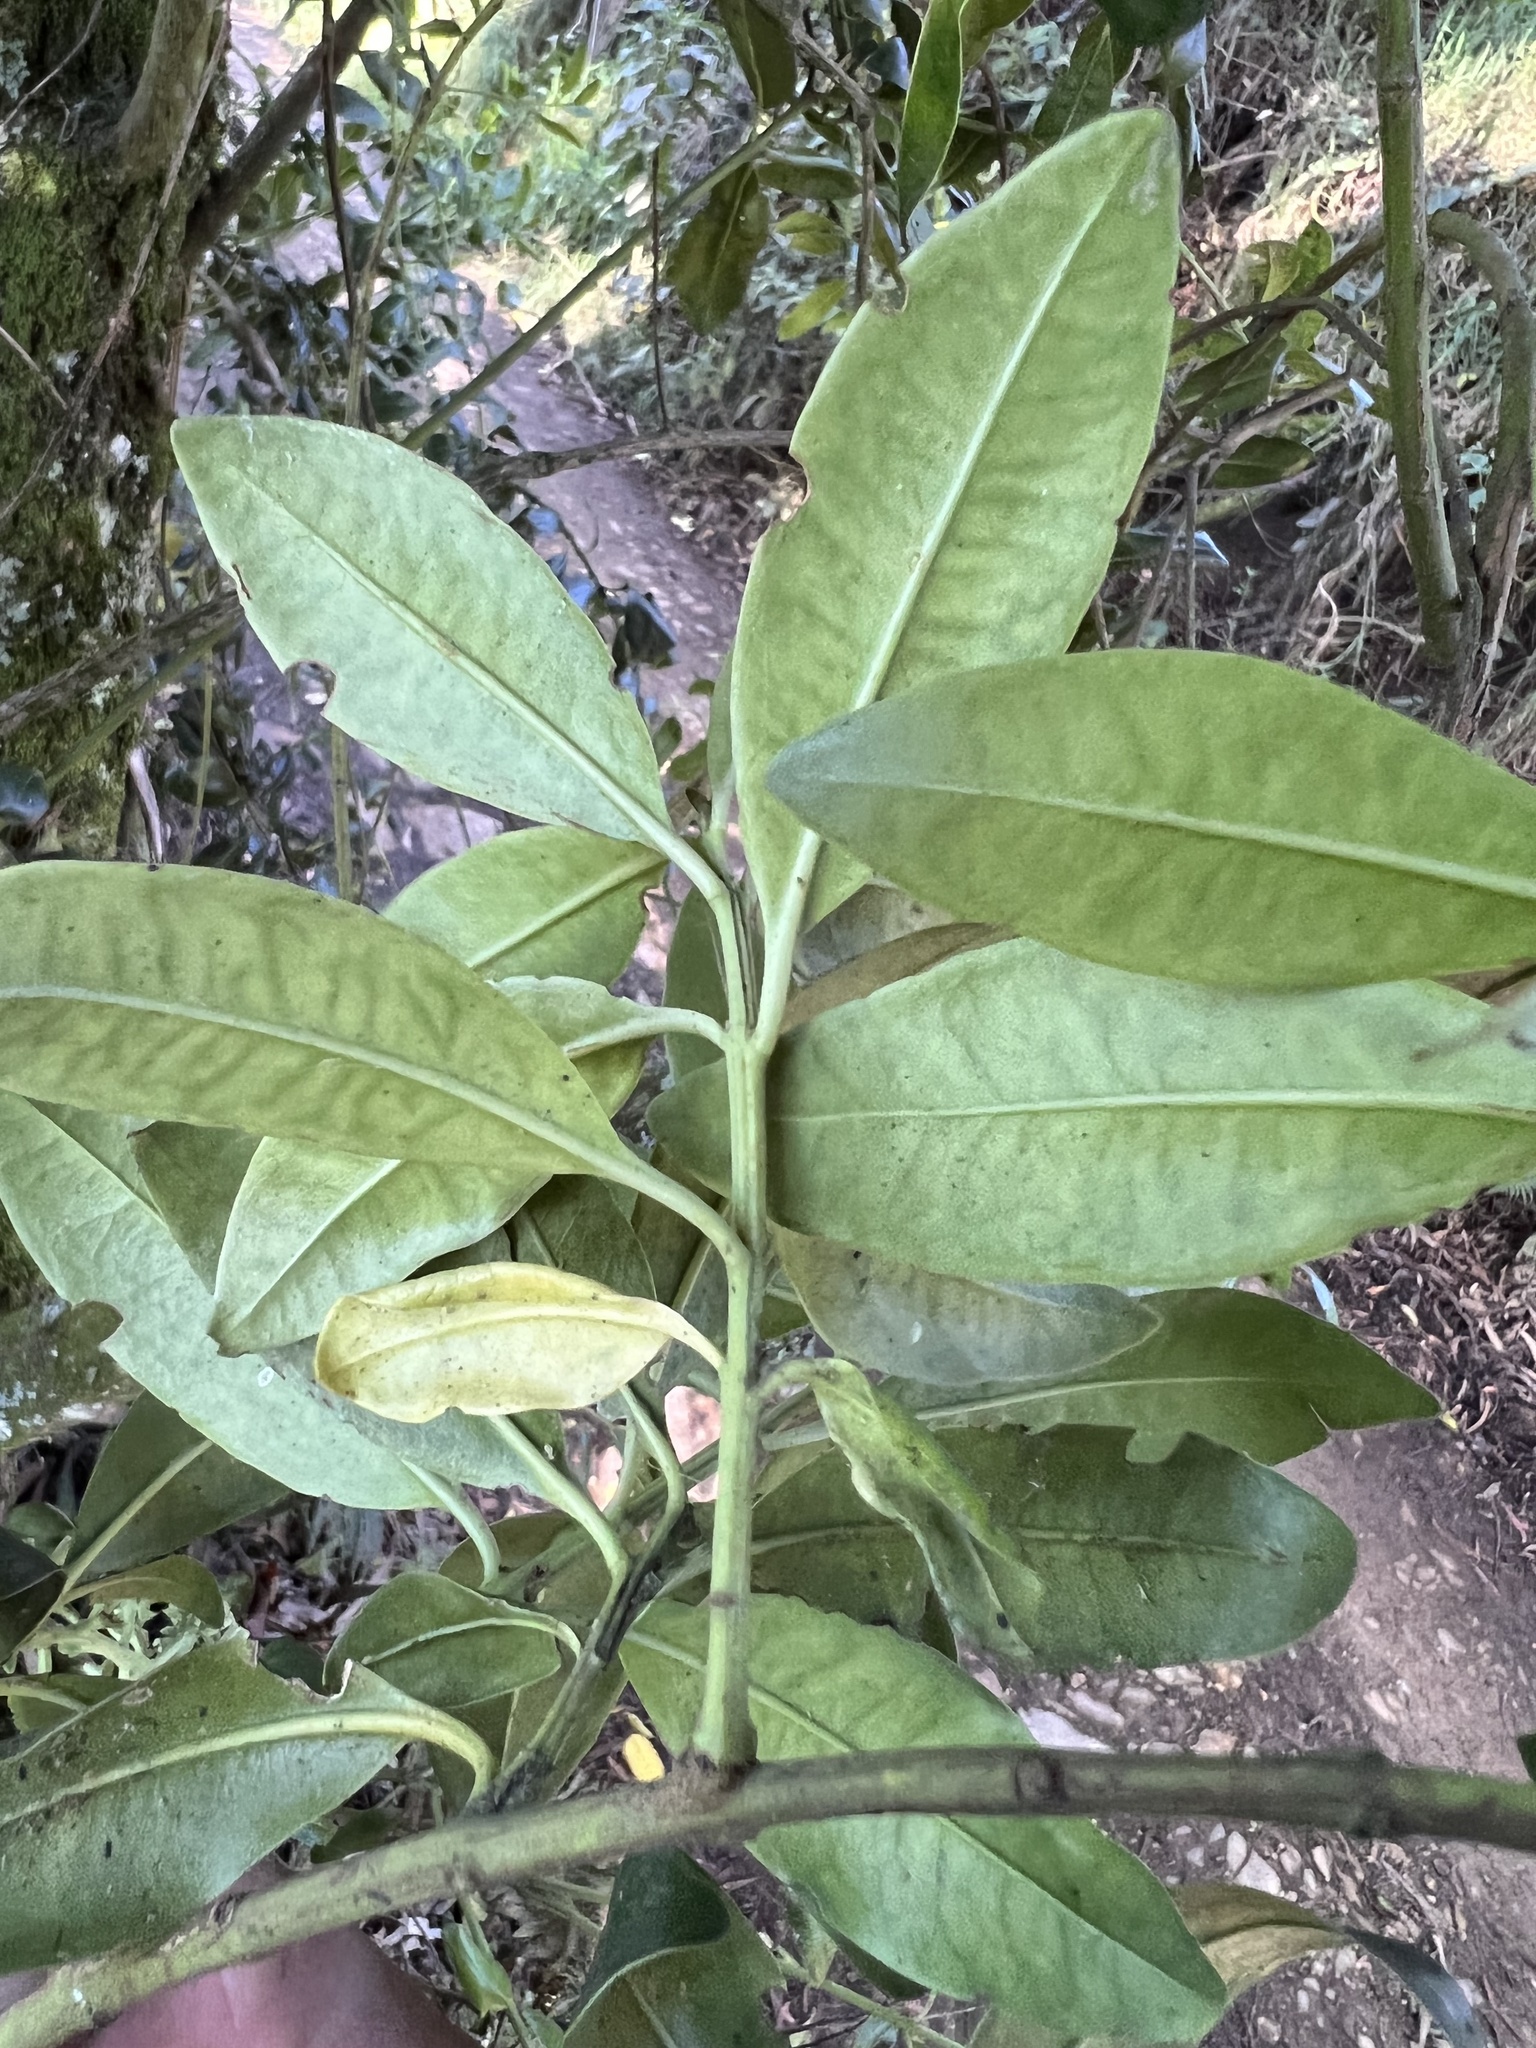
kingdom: Plantae
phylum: Tracheophyta
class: Magnoliopsida
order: Santalales
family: Loranthaceae
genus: Gaiadendron
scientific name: Gaiadendron punctatum
